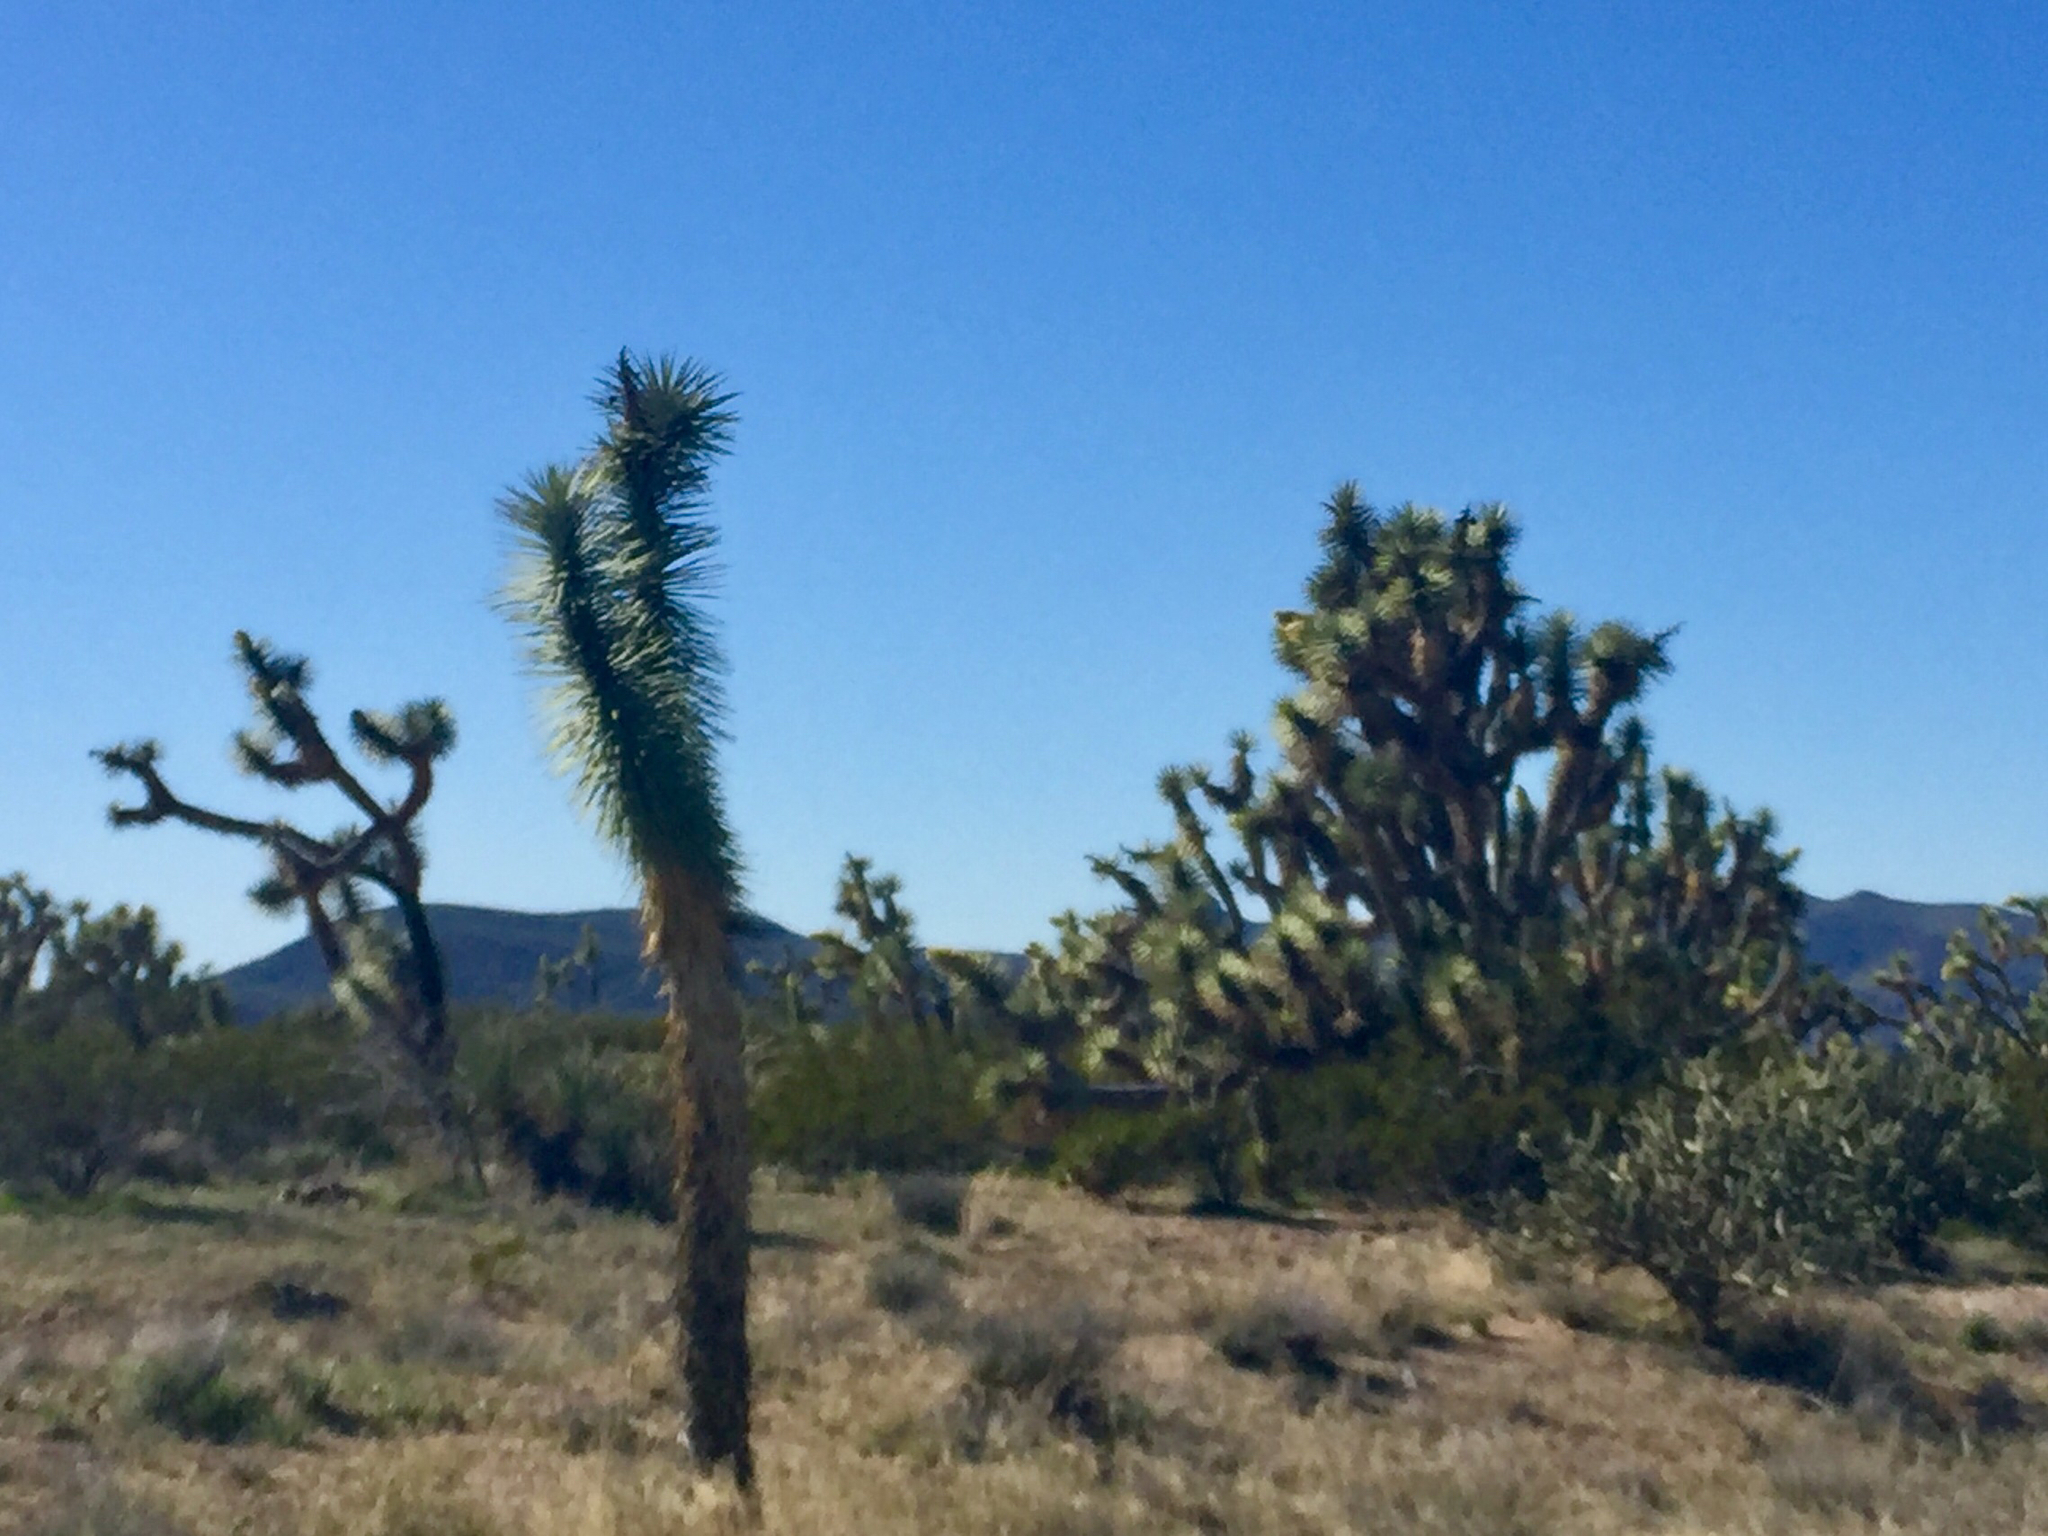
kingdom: Plantae
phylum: Tracheophyta
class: Liliopsida
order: Asparagales
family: Asparagaceae
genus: Yucca
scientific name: Yucca brevifolia
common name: Joshua tree
